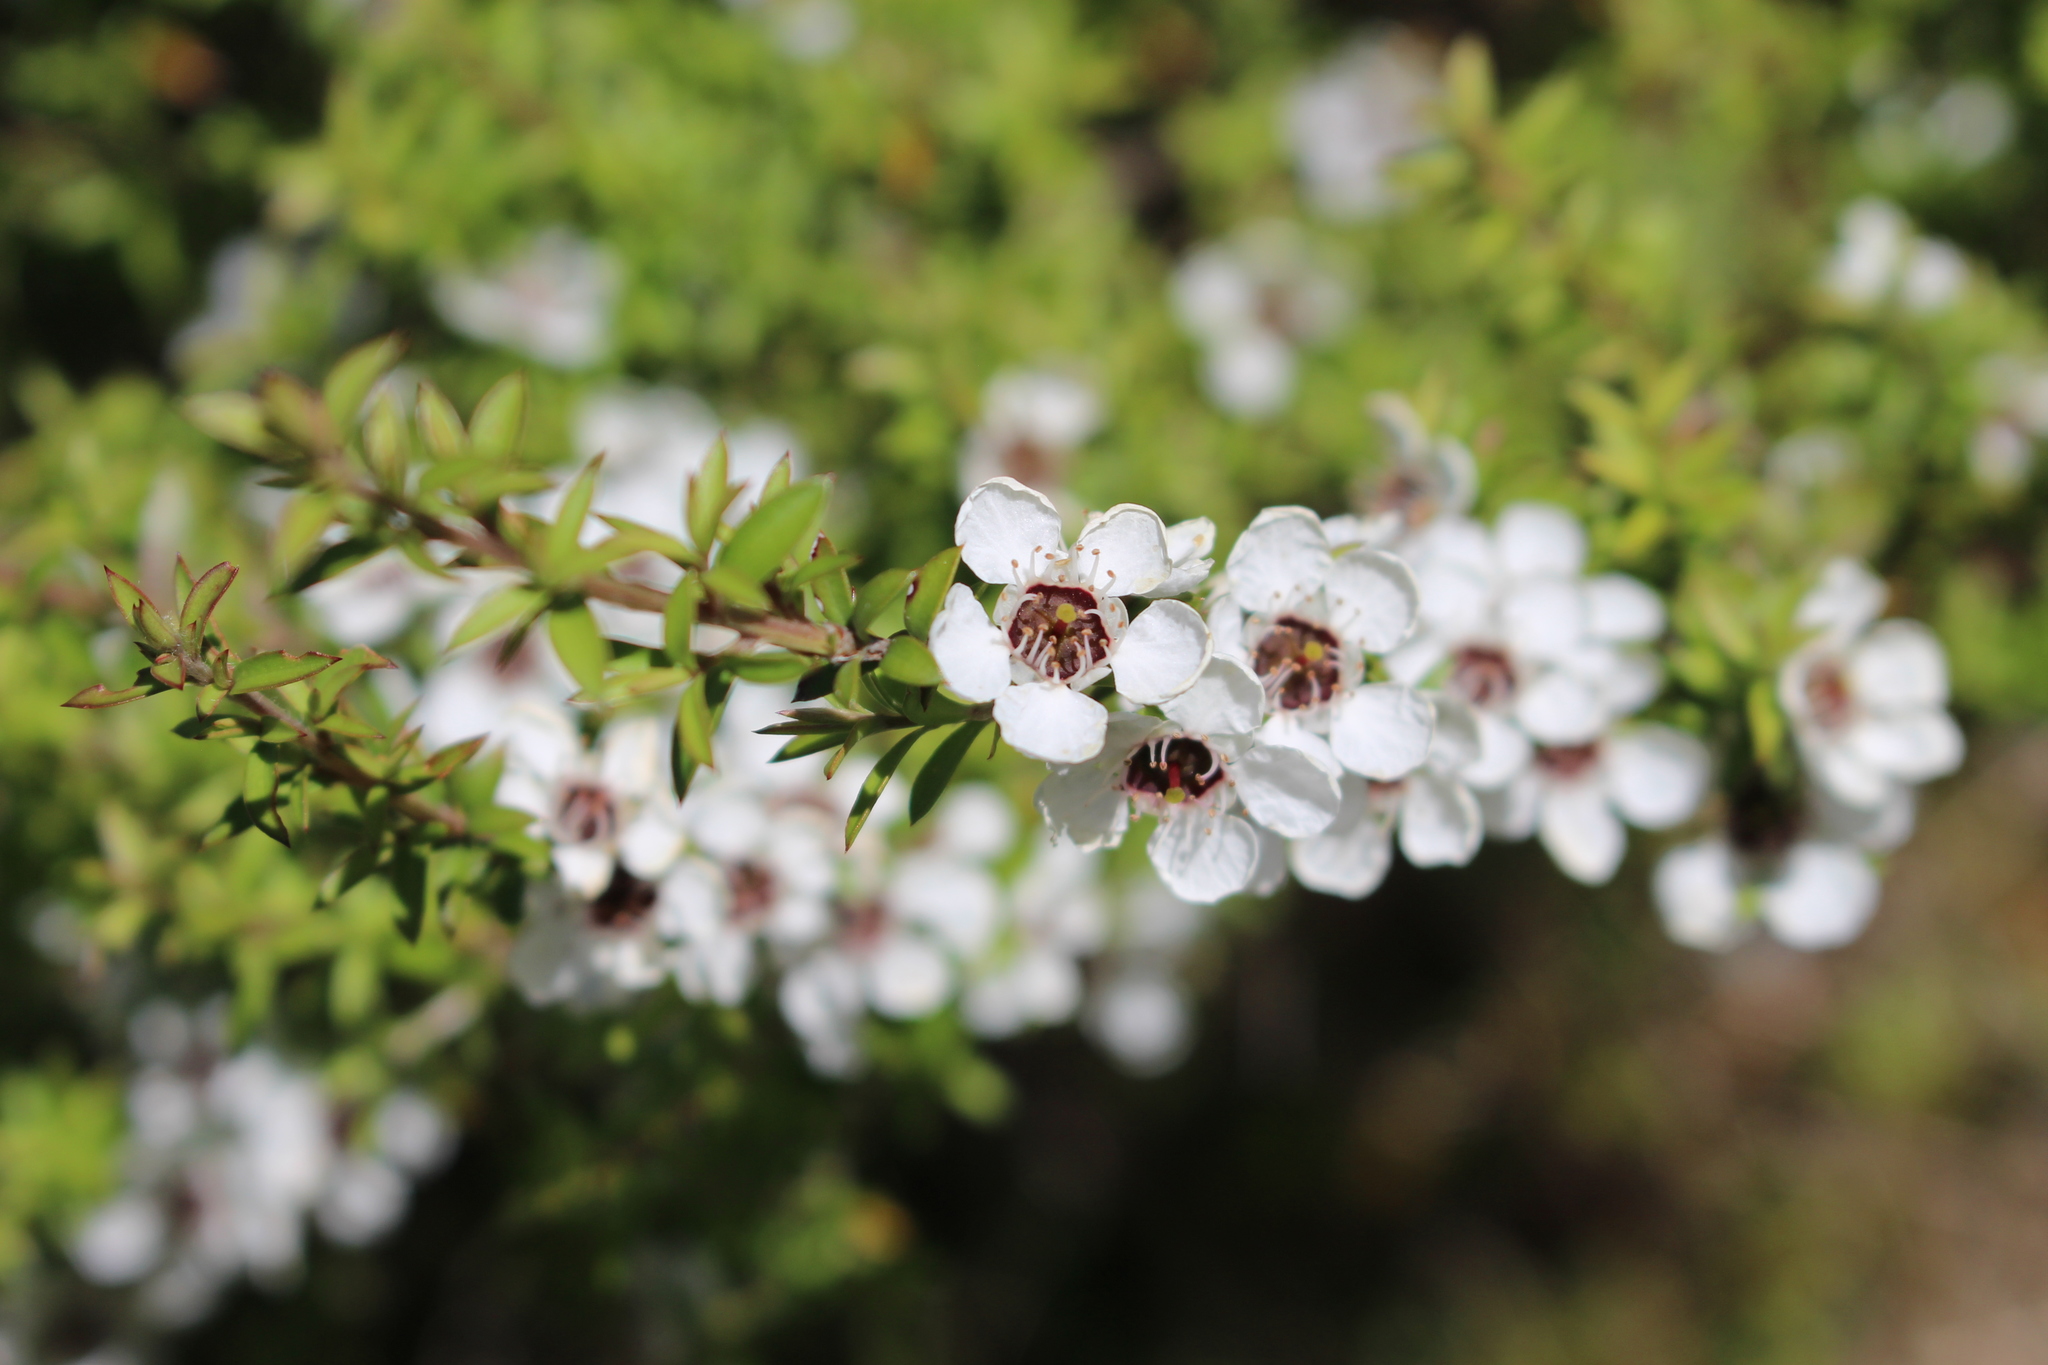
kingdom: Plantae
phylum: Tracheophyta
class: Magnoliopsida
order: Myrtales
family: Myrtaceae
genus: Leptospermum
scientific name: Leptospermum scoparium
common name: Broom tea-tree
